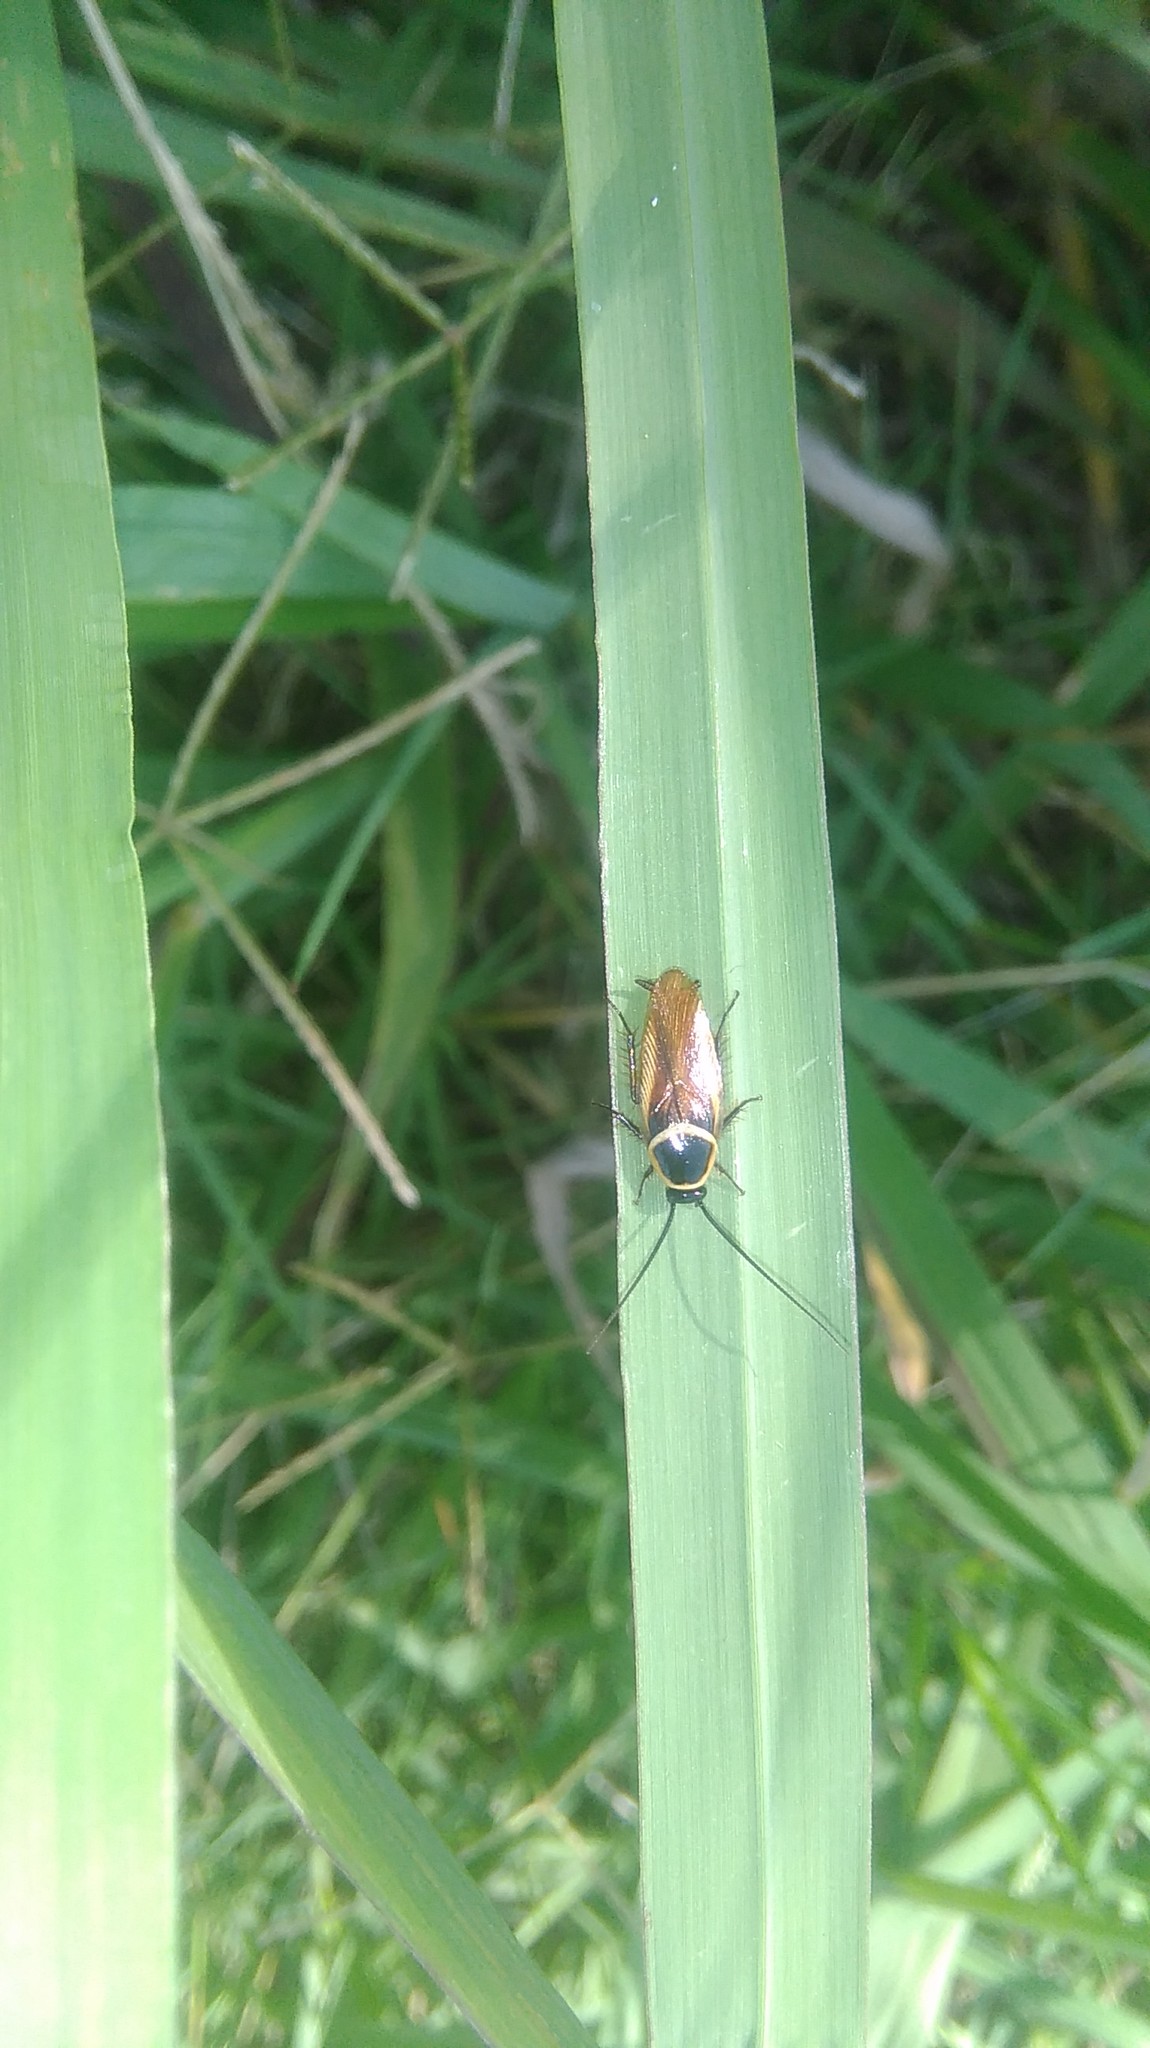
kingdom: Animalia
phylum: Arthropoda
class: Insecta
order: Blattodea
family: Ectobiidae
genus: Pseudomops
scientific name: Pseudomops neglectus
